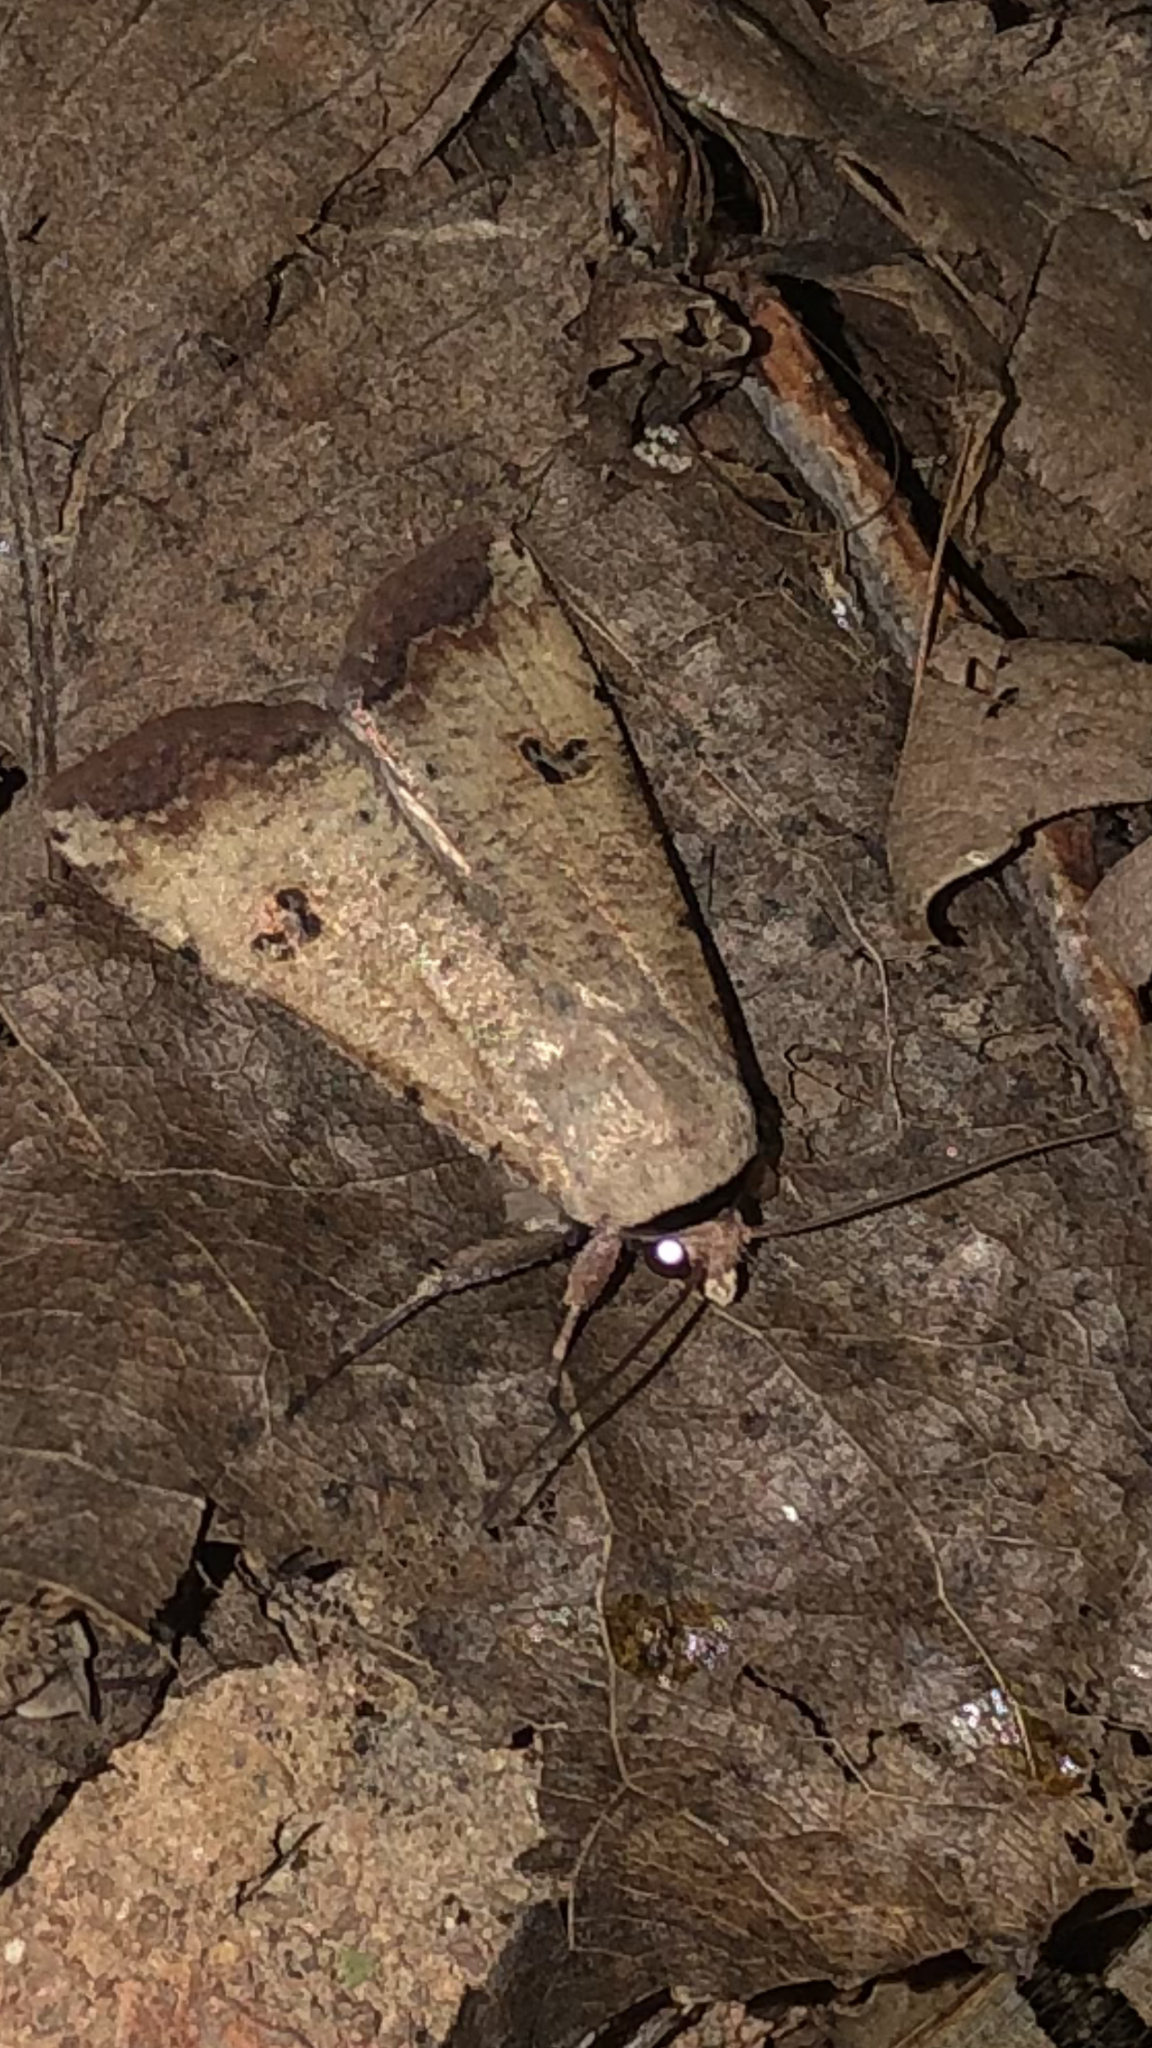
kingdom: Animalia
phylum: Arthropoda
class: Insecta
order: Lepidoptera
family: Noctuidae
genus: Anicla
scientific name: Anicla infecta
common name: Green cutworm
